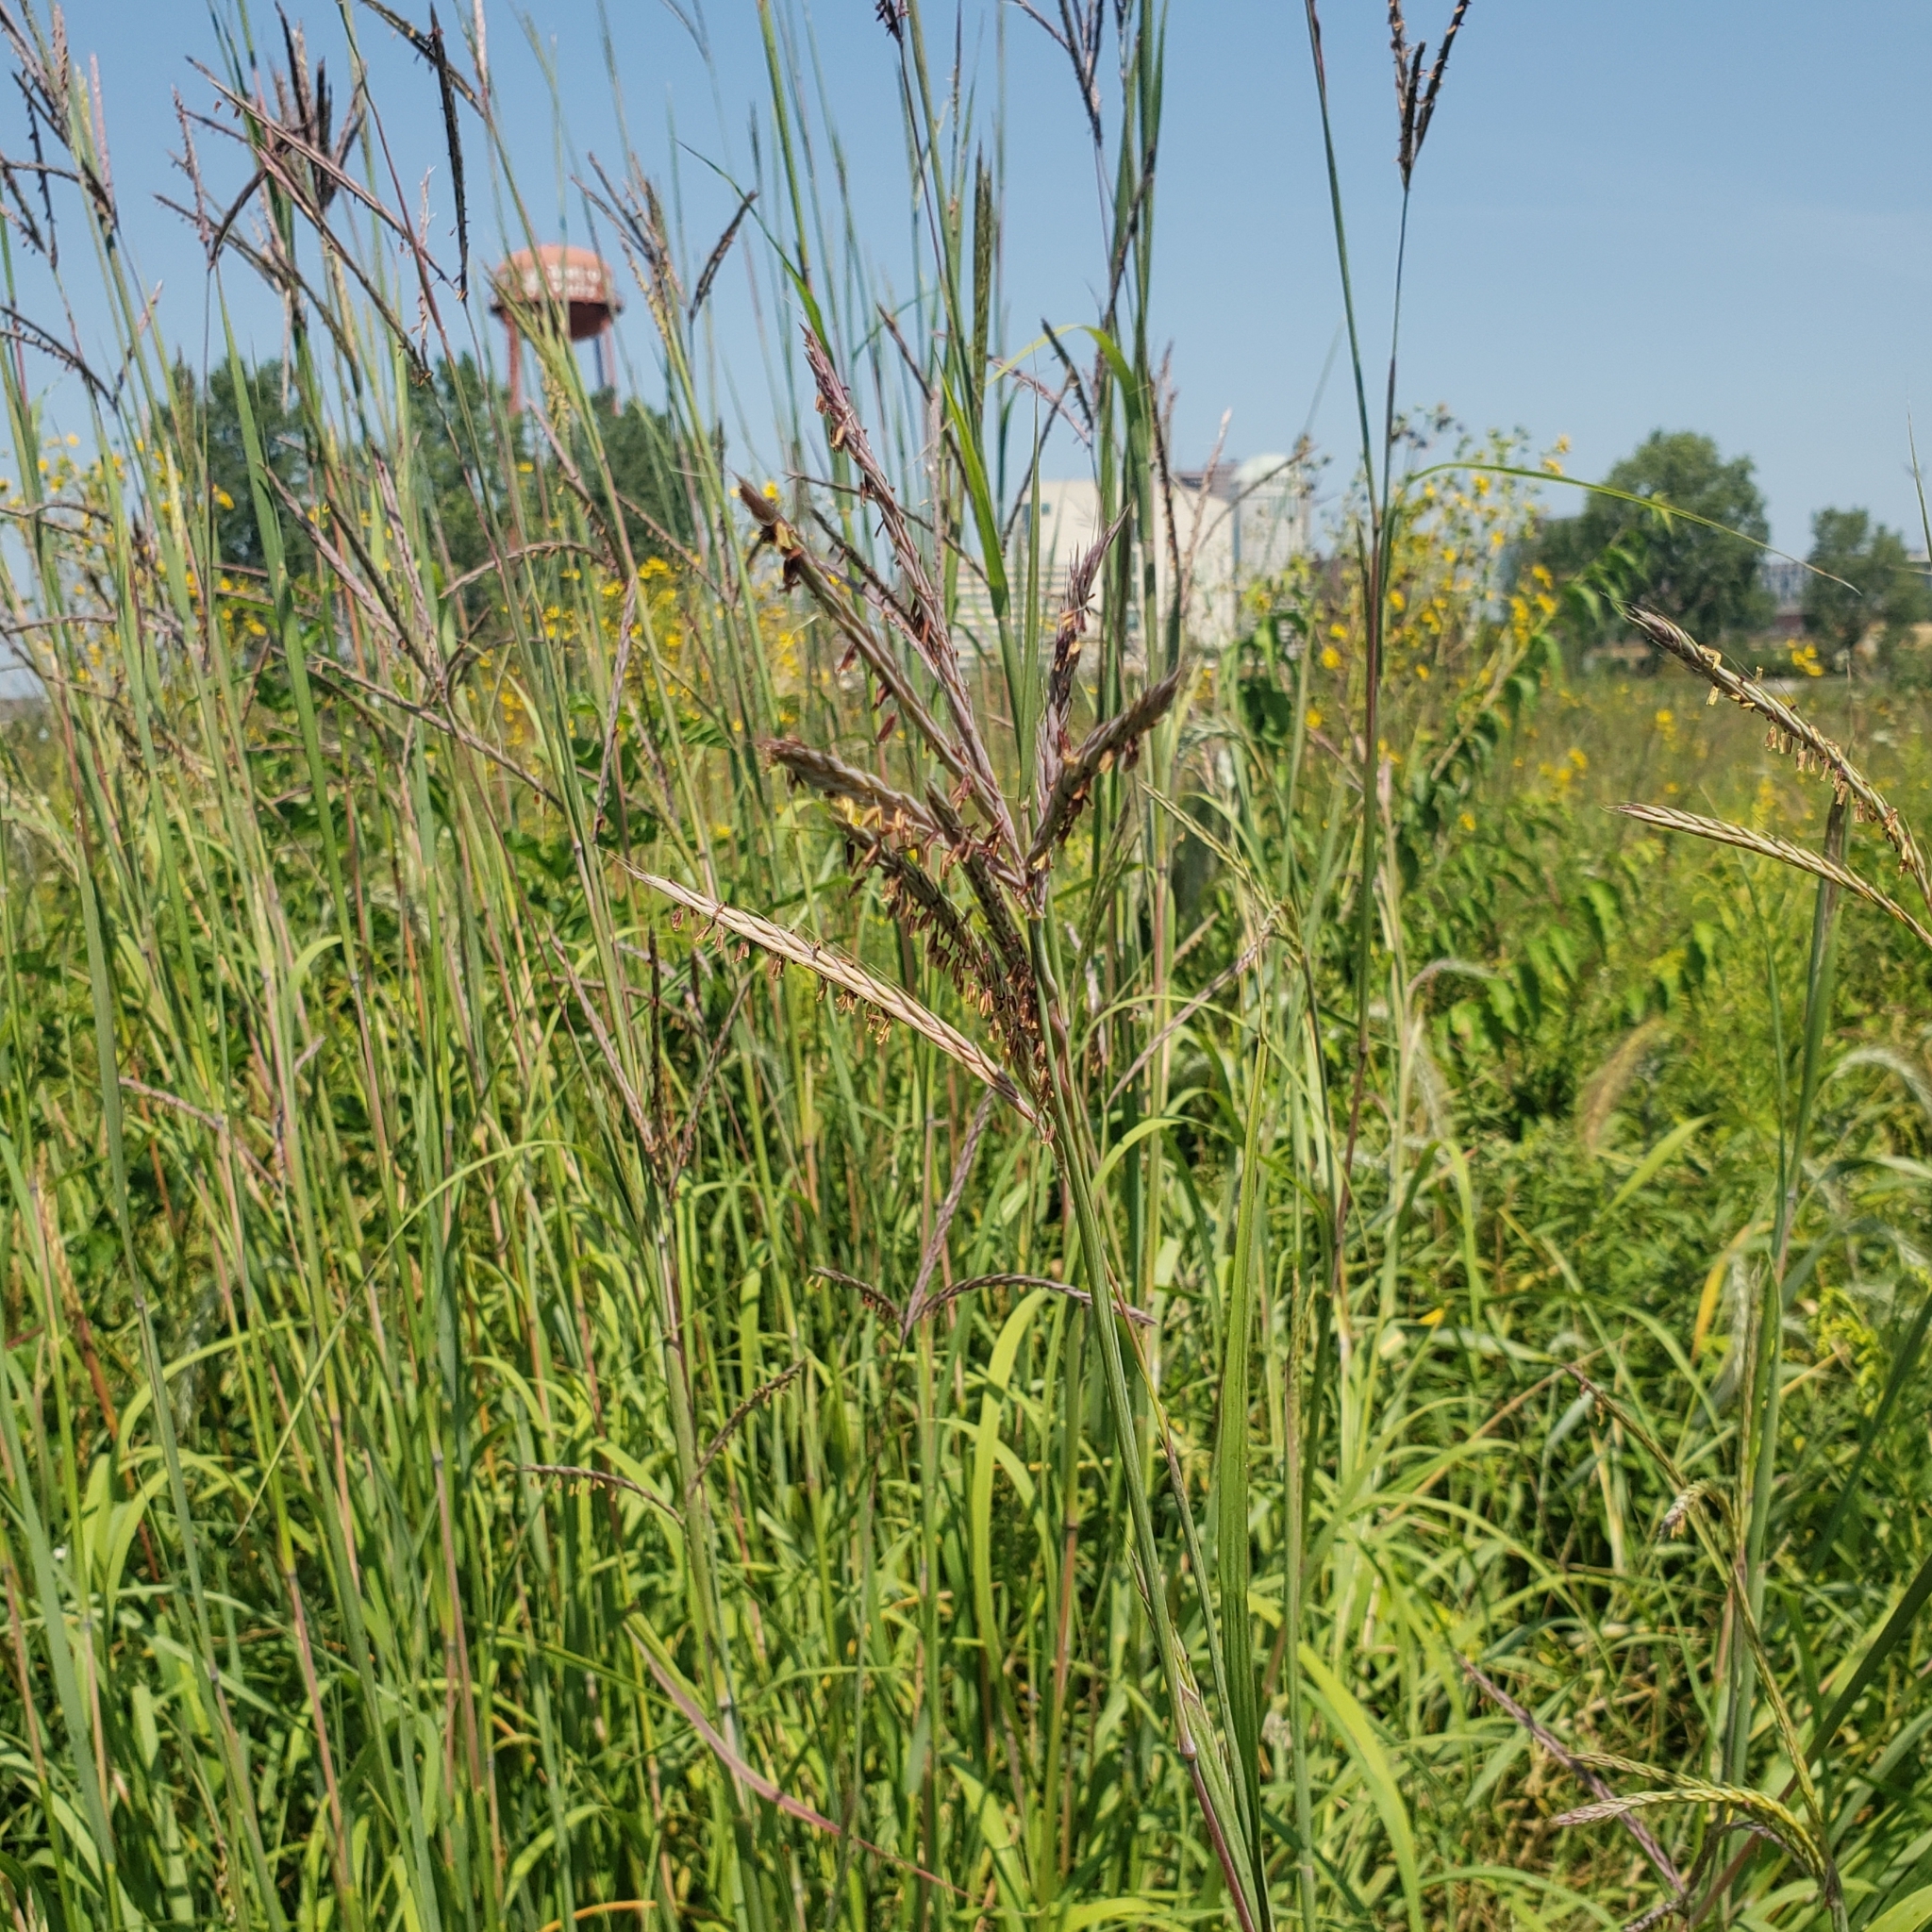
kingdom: Plantae
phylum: Tracheophyta
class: Liliopsida
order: Poales
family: Poaceae
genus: Andropogon
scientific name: Andropogon gerardi
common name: Big bluestem
